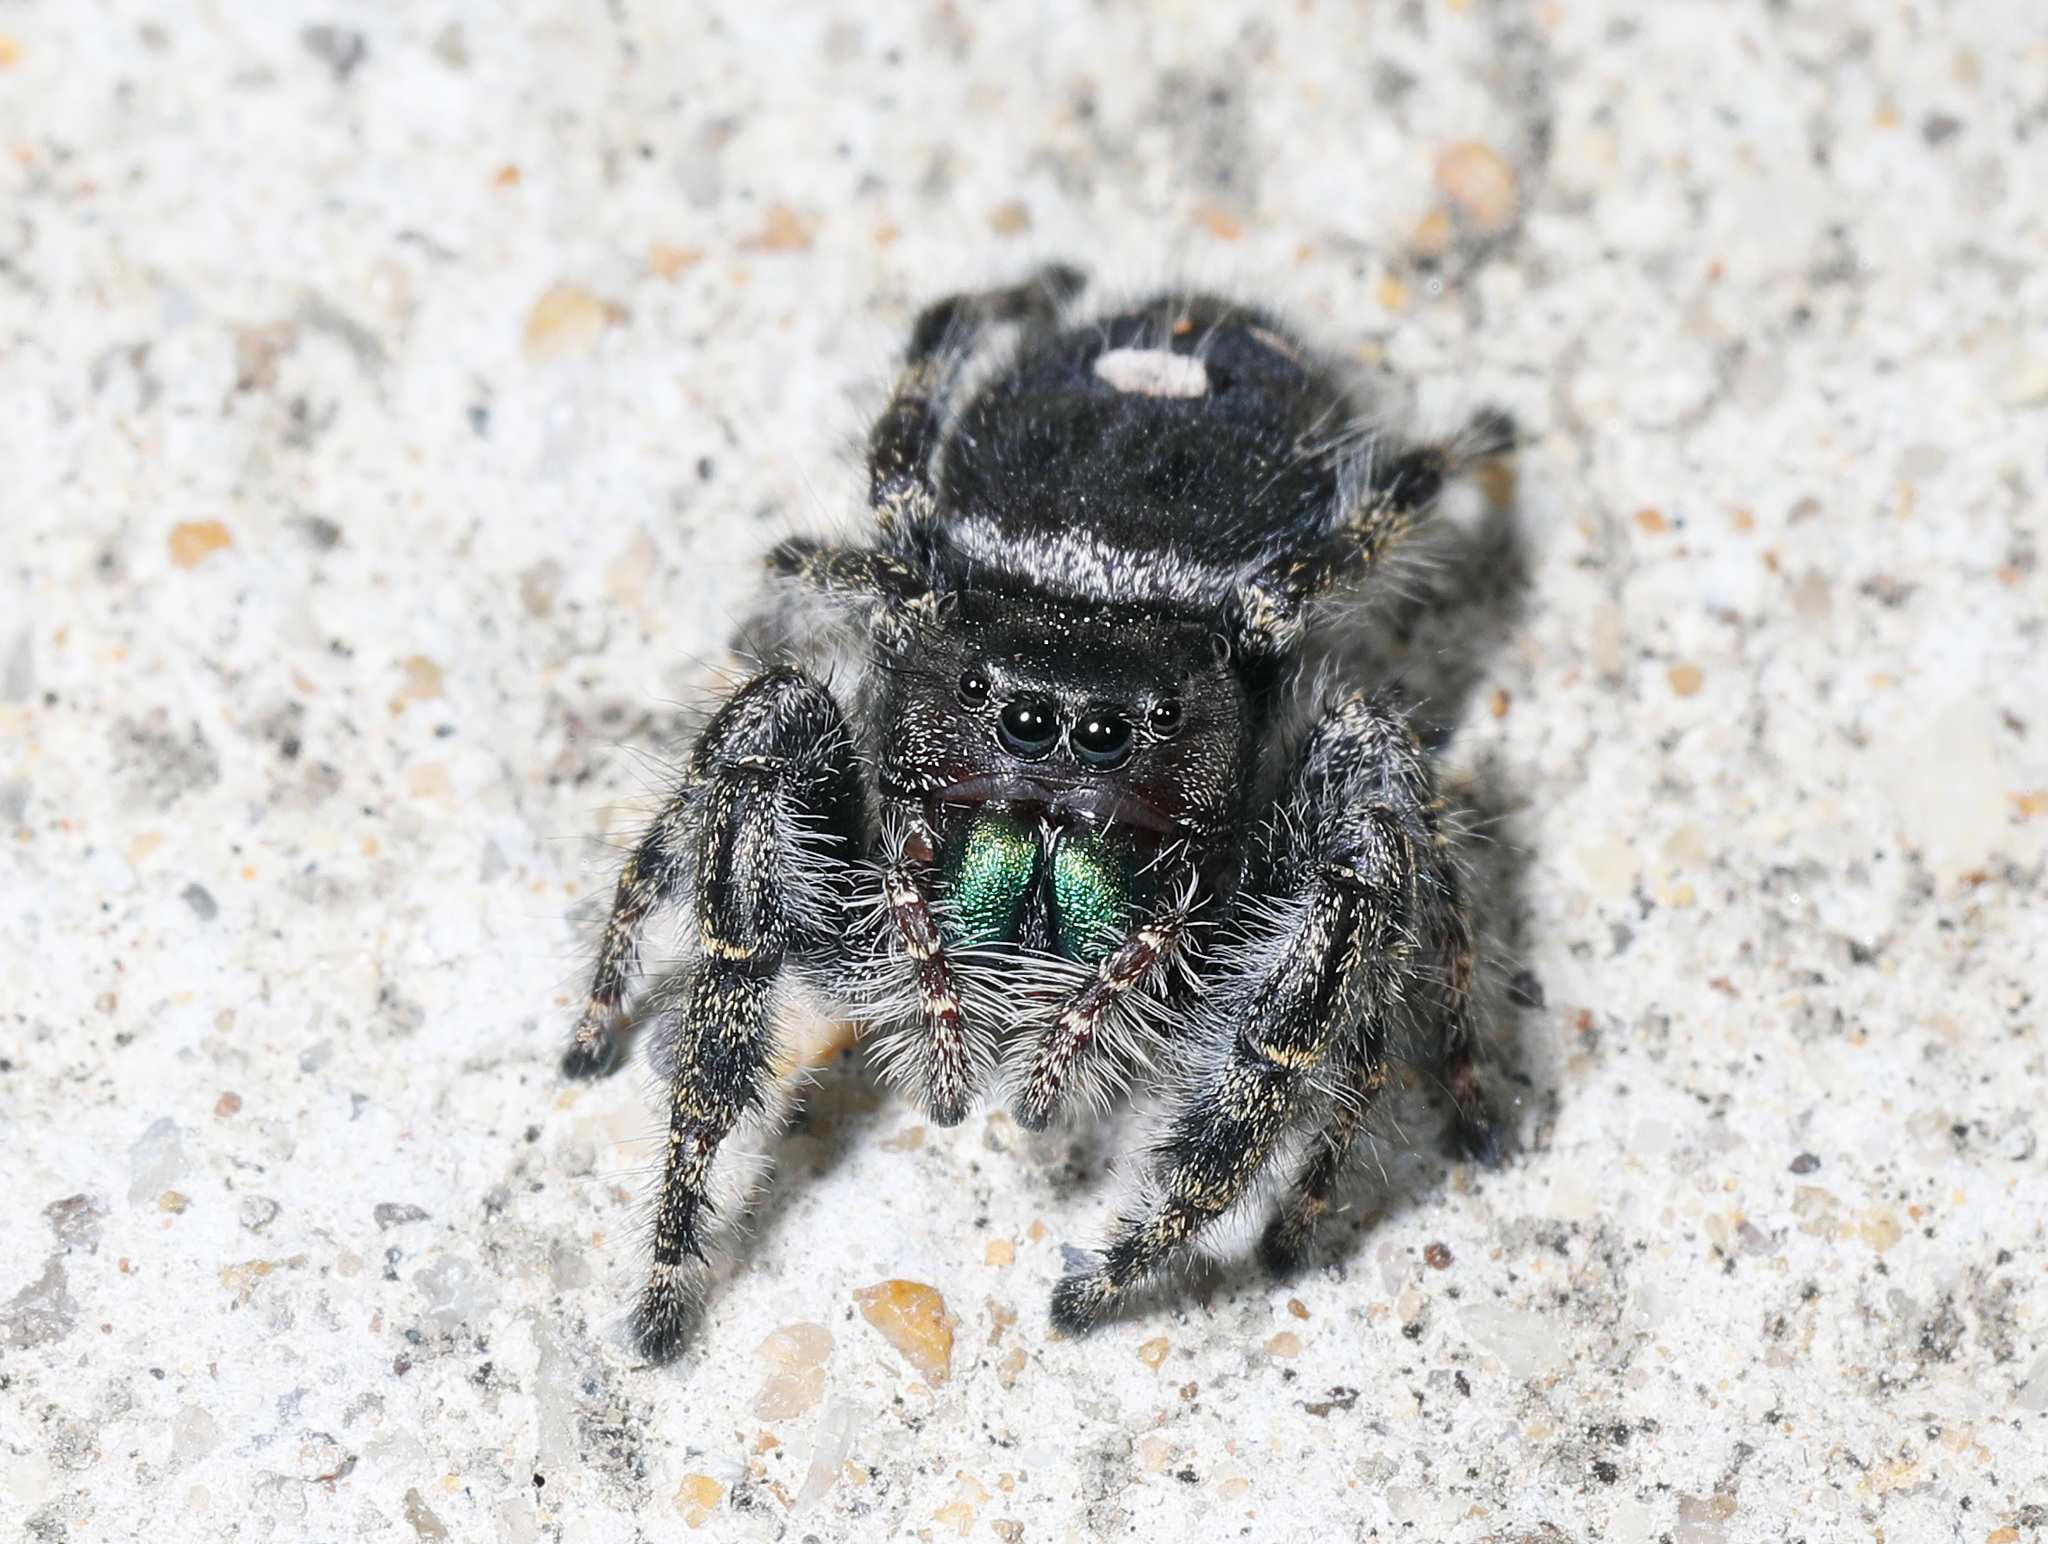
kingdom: Animalia
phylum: Arthropoda
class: Arachnida
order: Araneae
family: Salticidae
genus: Phidippus
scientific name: Phidippus audax
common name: Bold jumper
